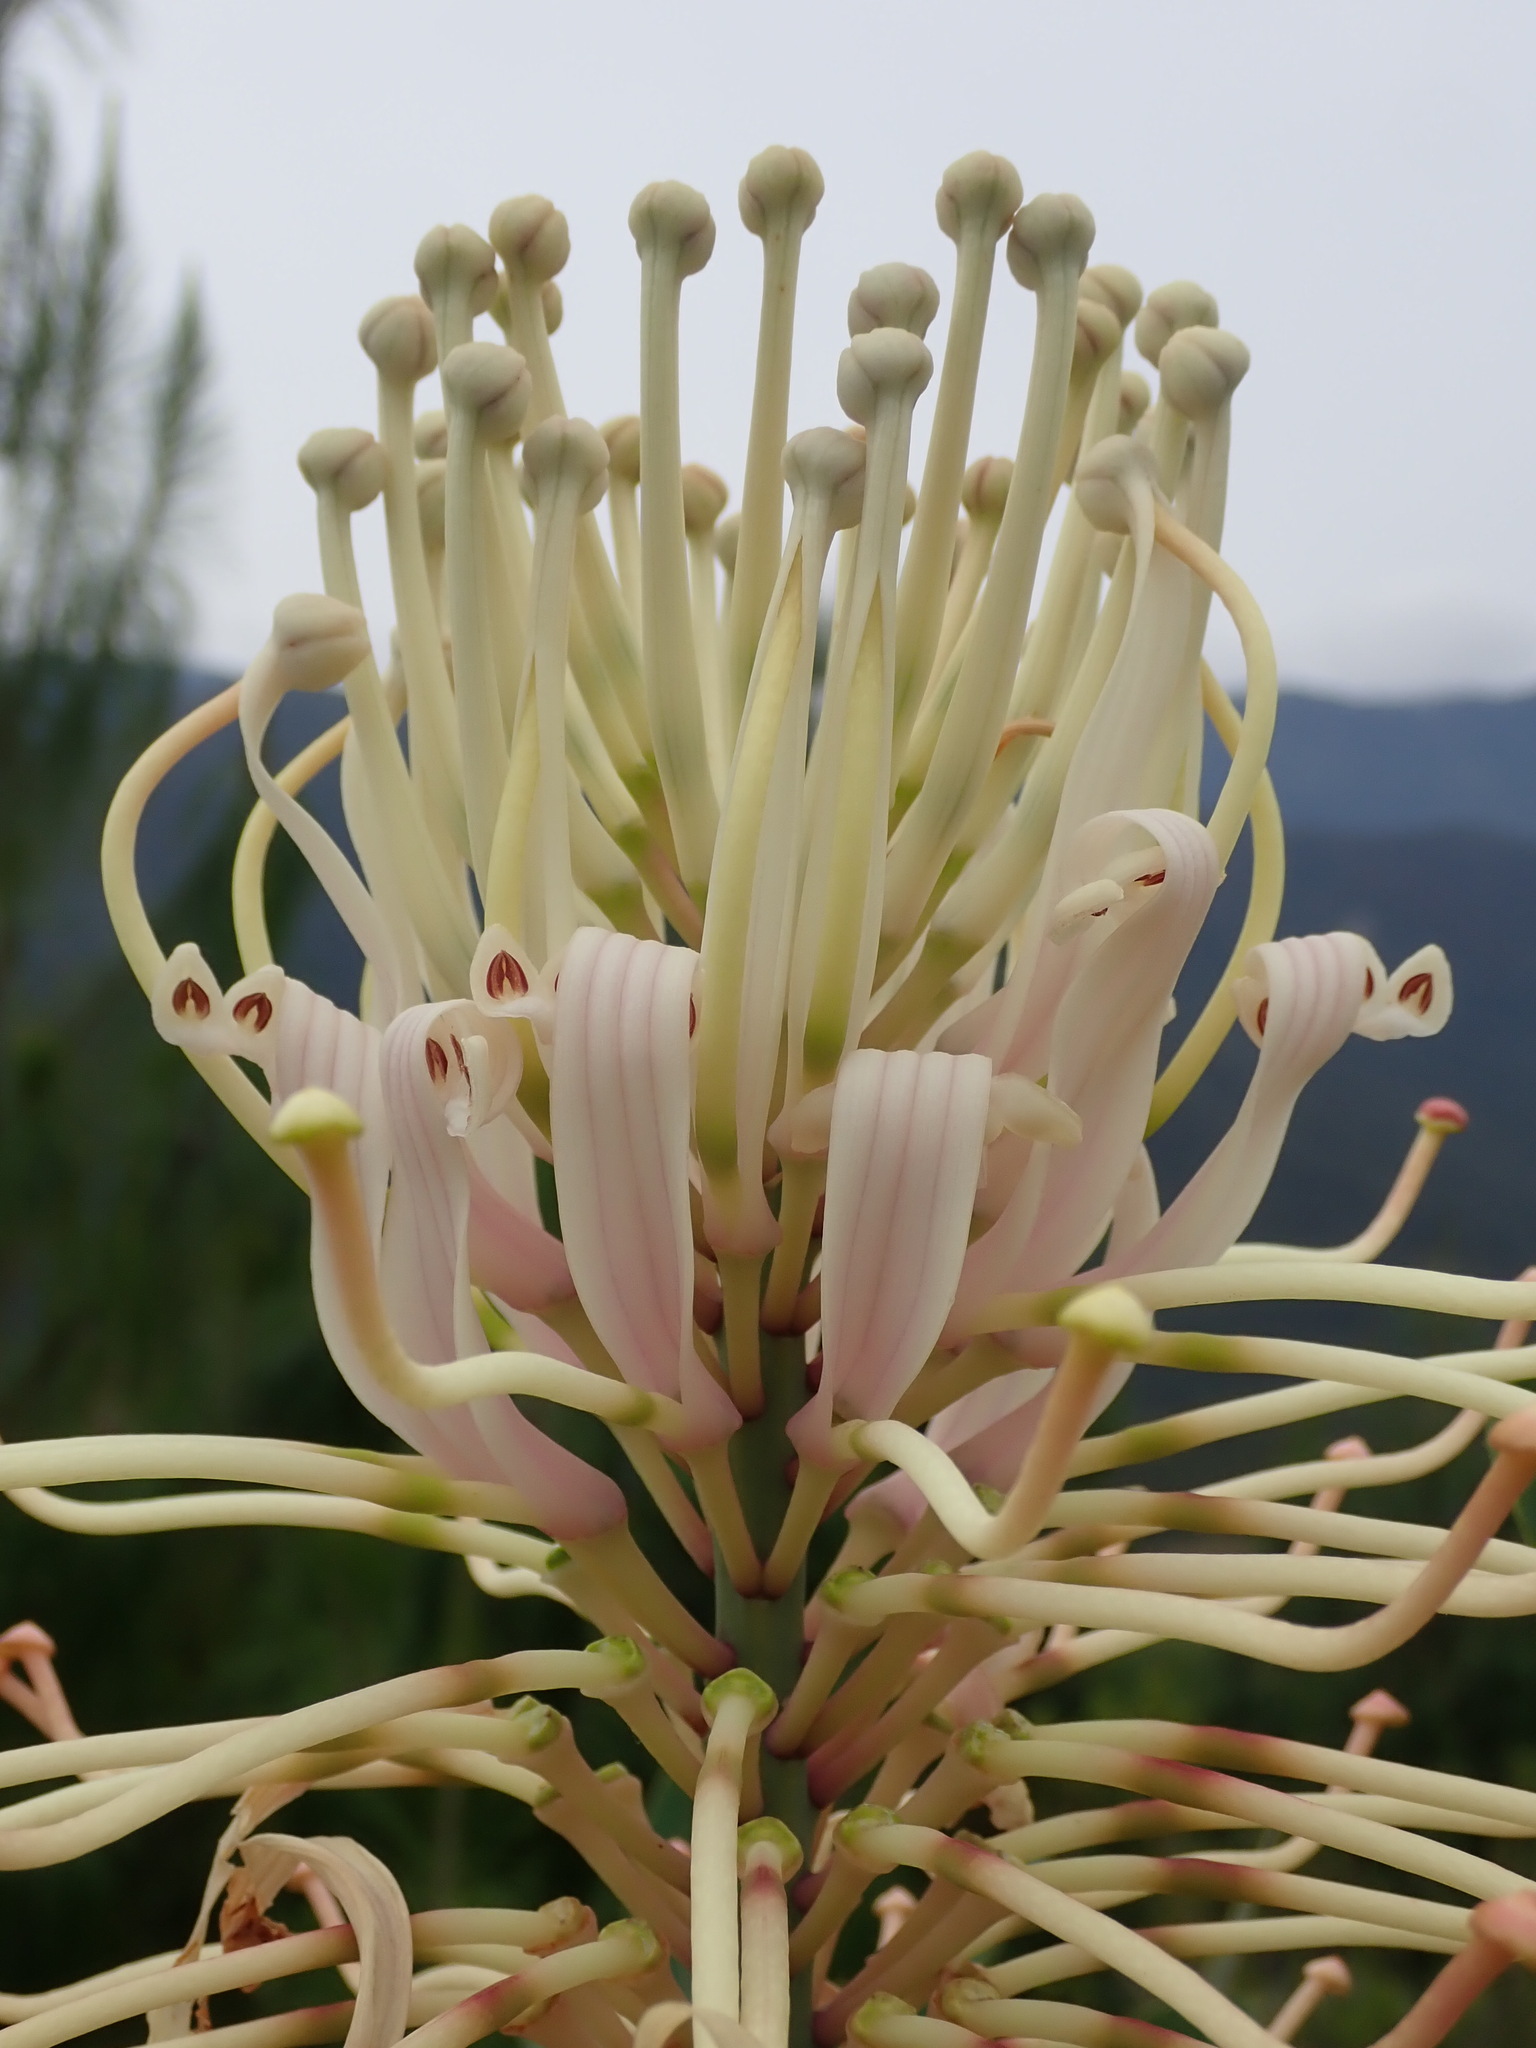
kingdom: Plantae
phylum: Tracheophyta
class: Magnoliopsida
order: Proteales
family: Proteaceae
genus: Oreocallis
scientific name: Oreocallis grandiflora
